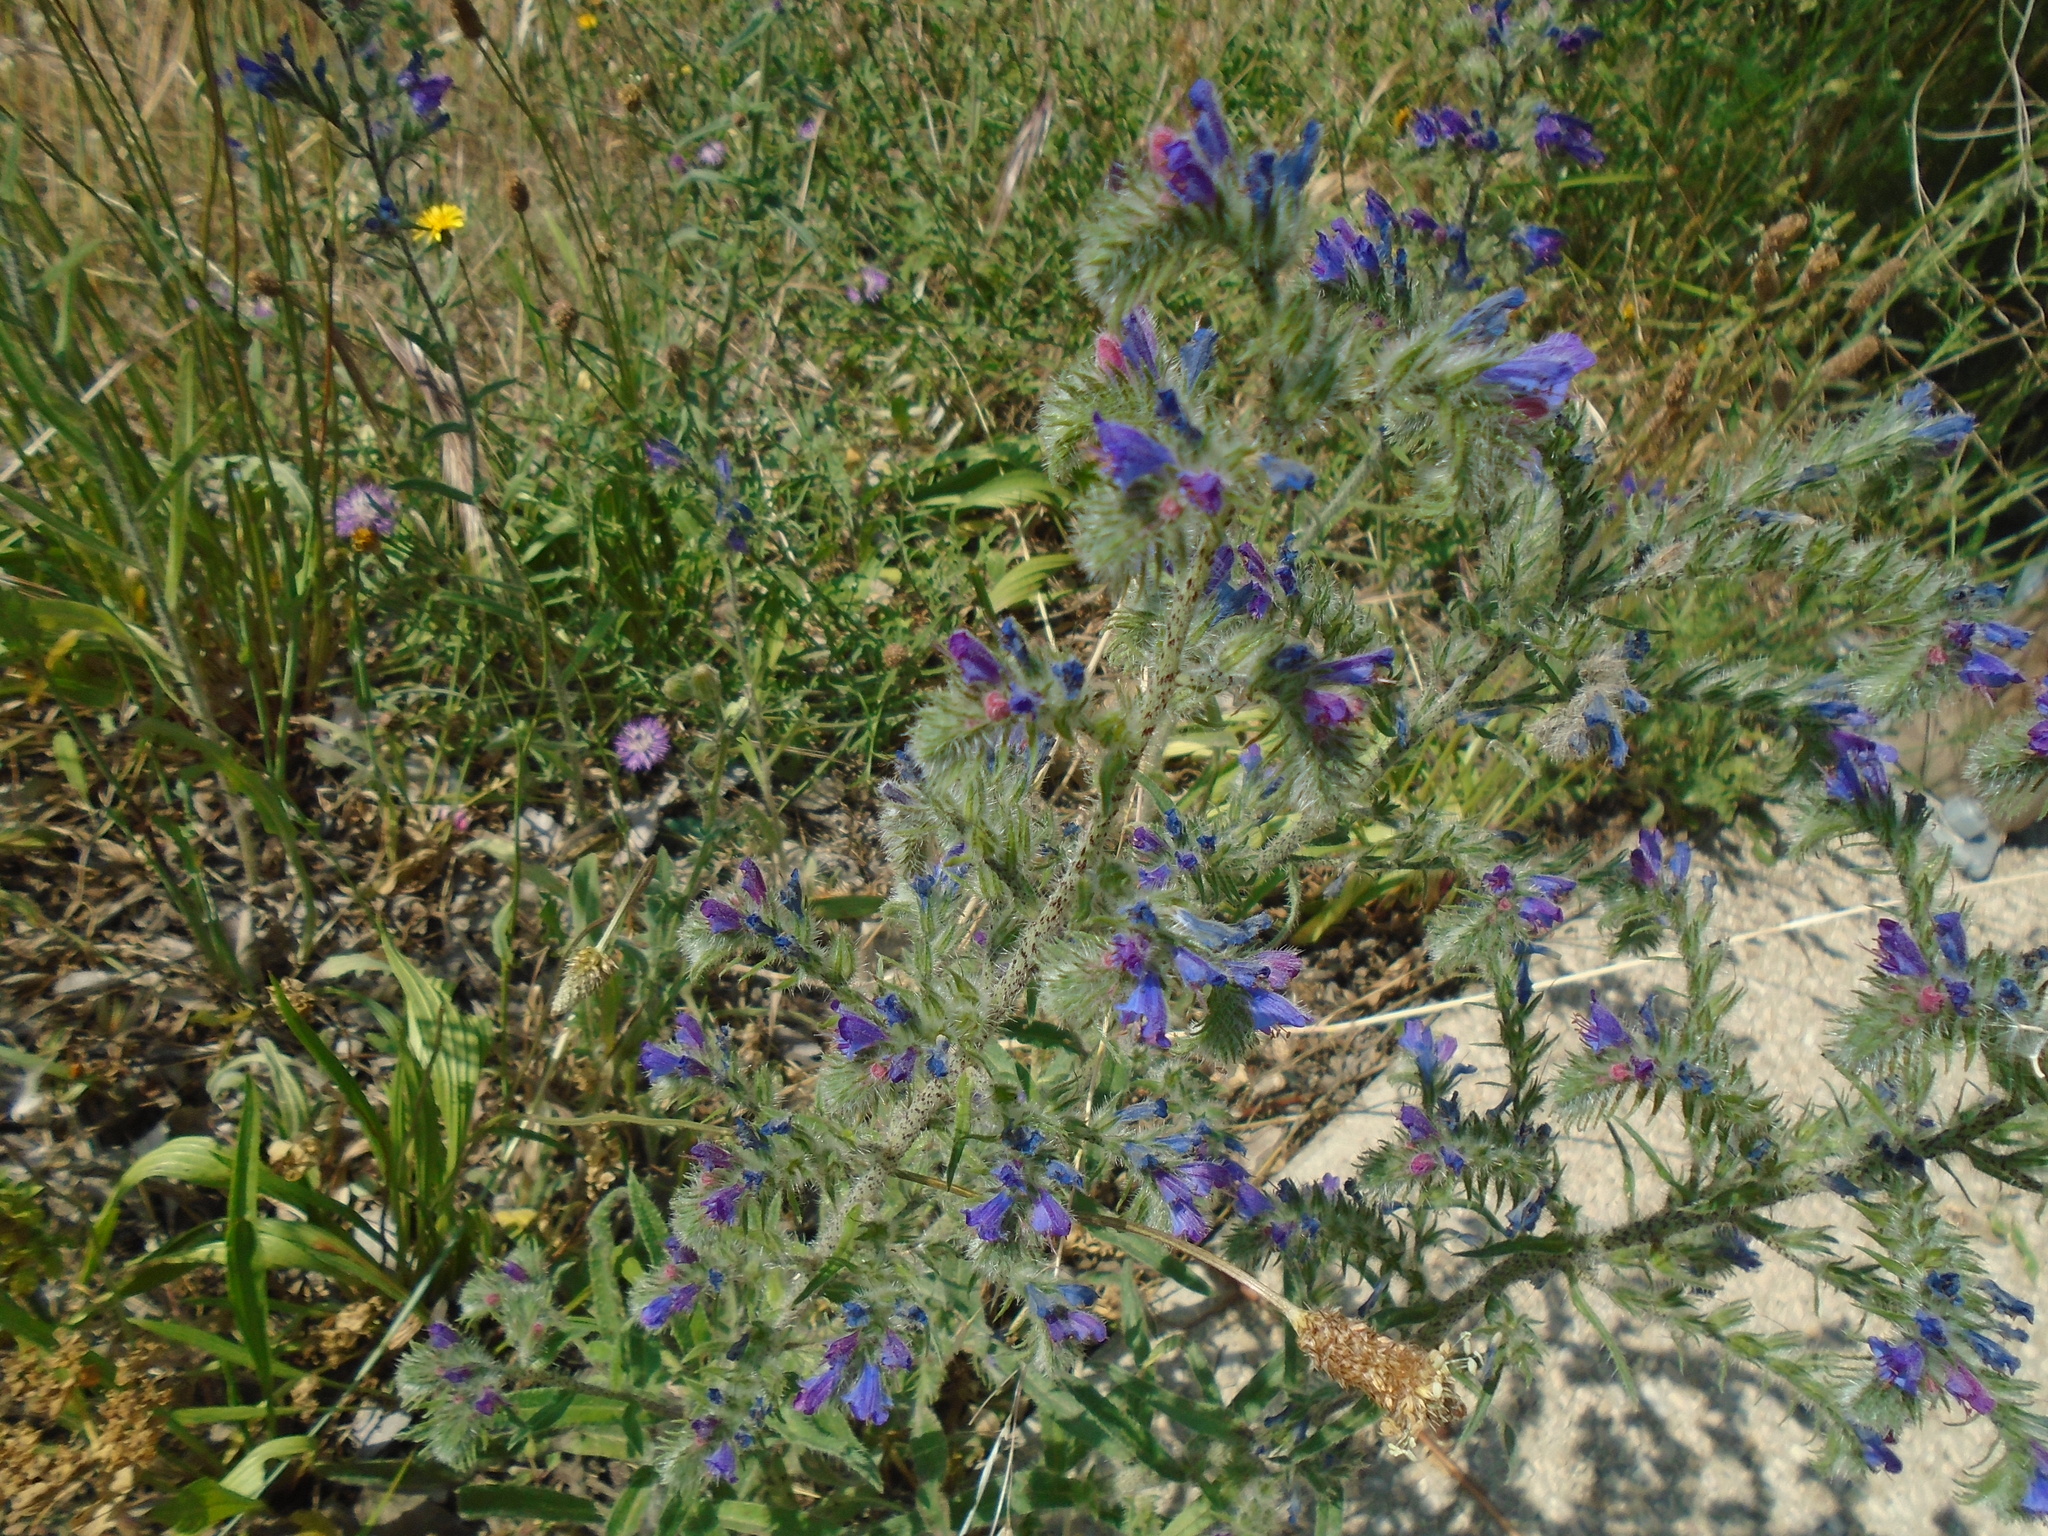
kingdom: Plantae
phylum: Tracheophyta
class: Magnoliopsida
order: Boraginales
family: Boraginaceae
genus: Echium
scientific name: Echium vulgare
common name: Common viper's bugloss
